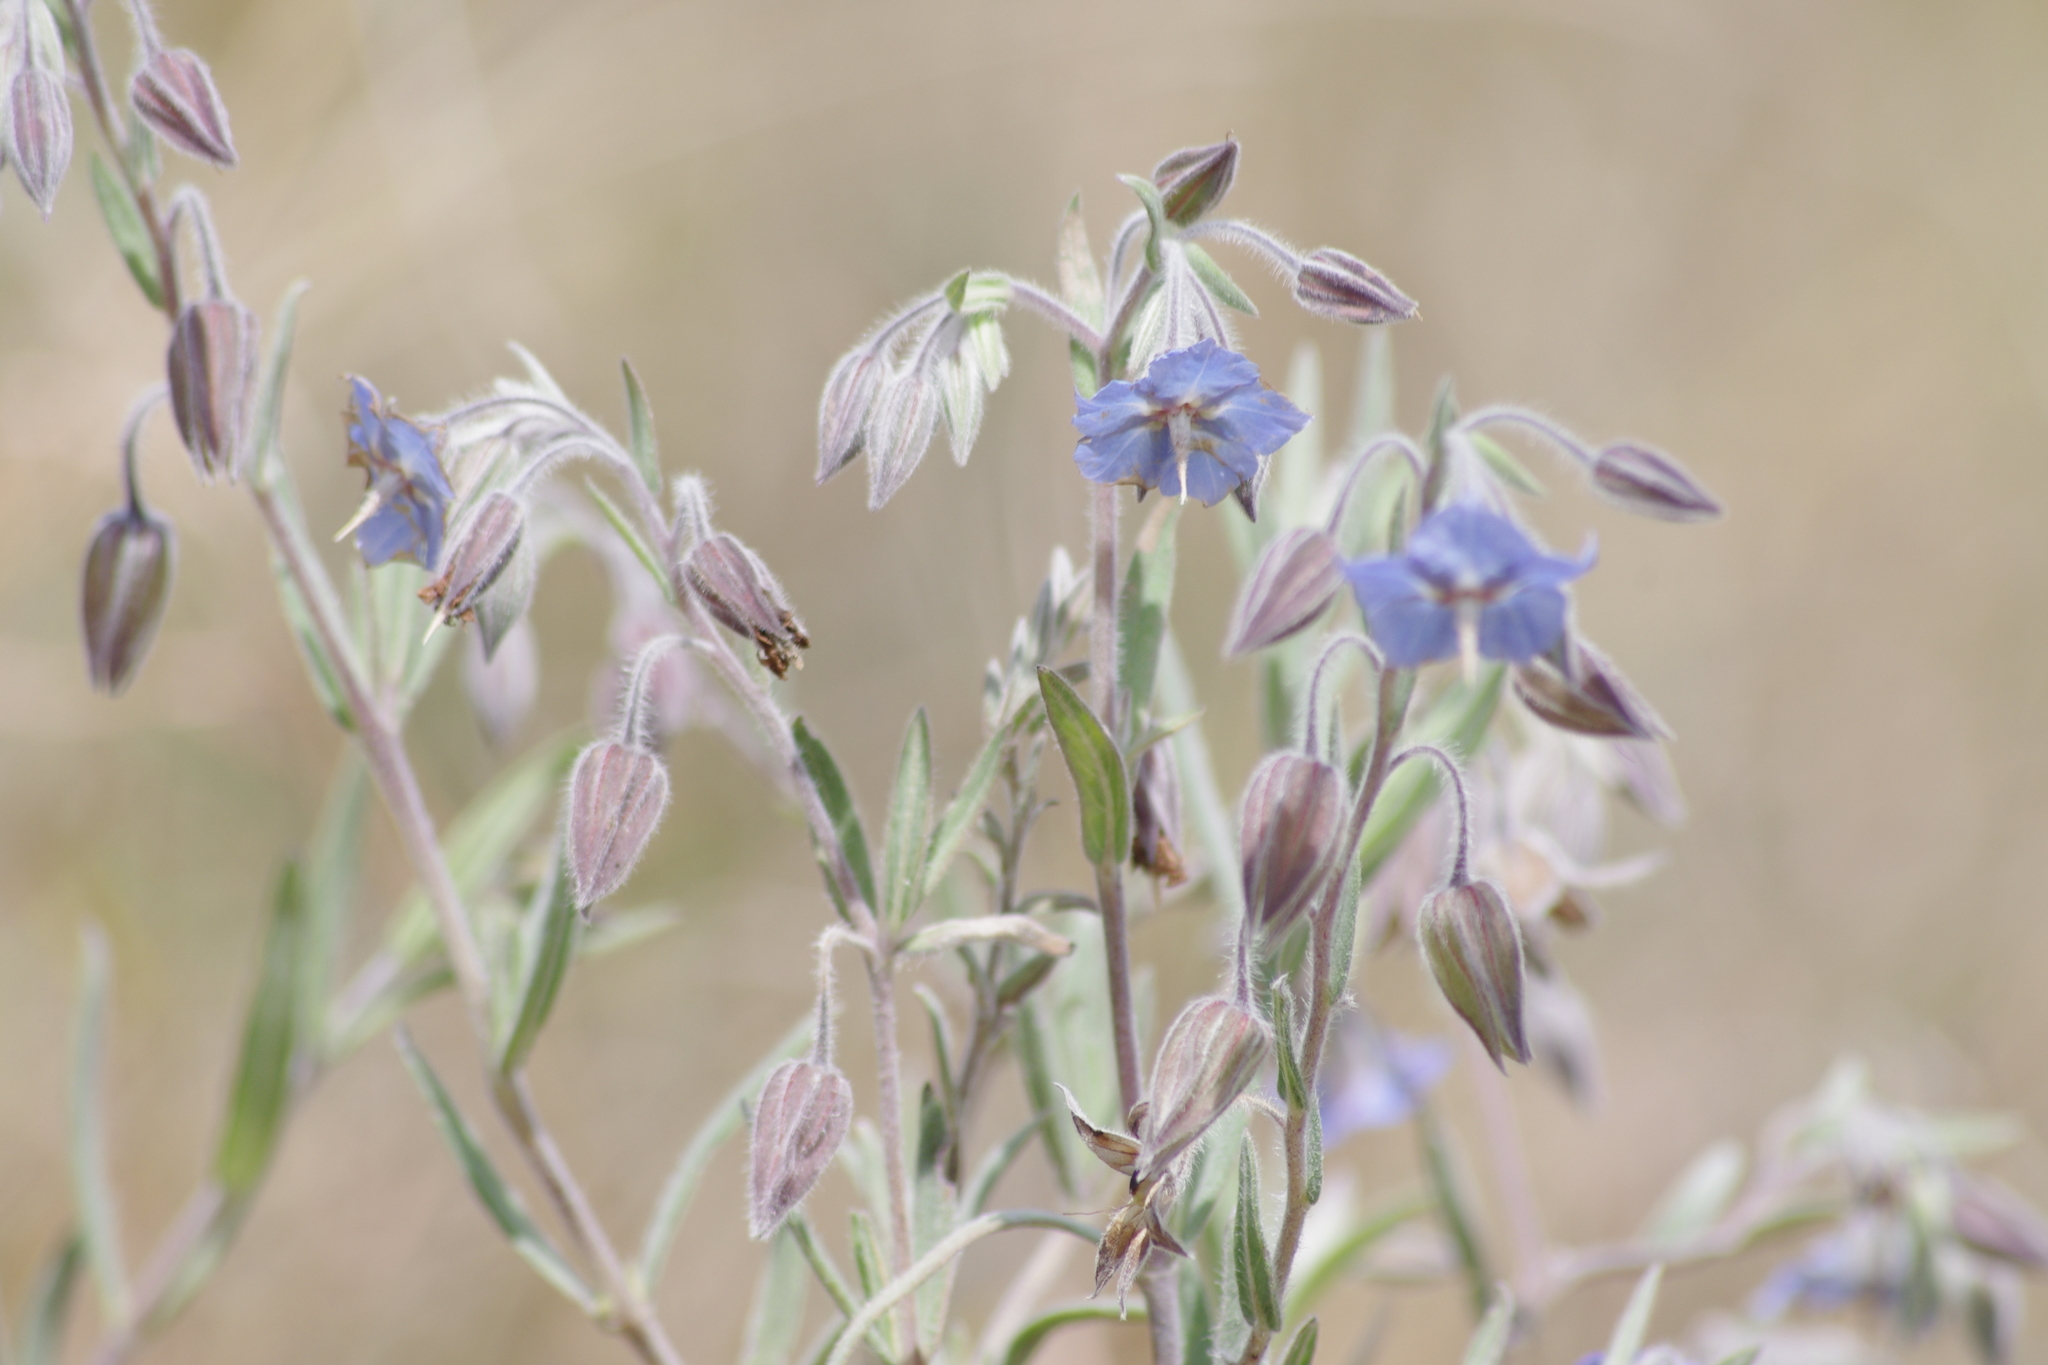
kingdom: Plantae
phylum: Tracheophyta
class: Magnoliopsida
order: Boraginales
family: Boraginaceae
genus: Trichodesma
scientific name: Trichodesma zeylanicum
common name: Camelbush
